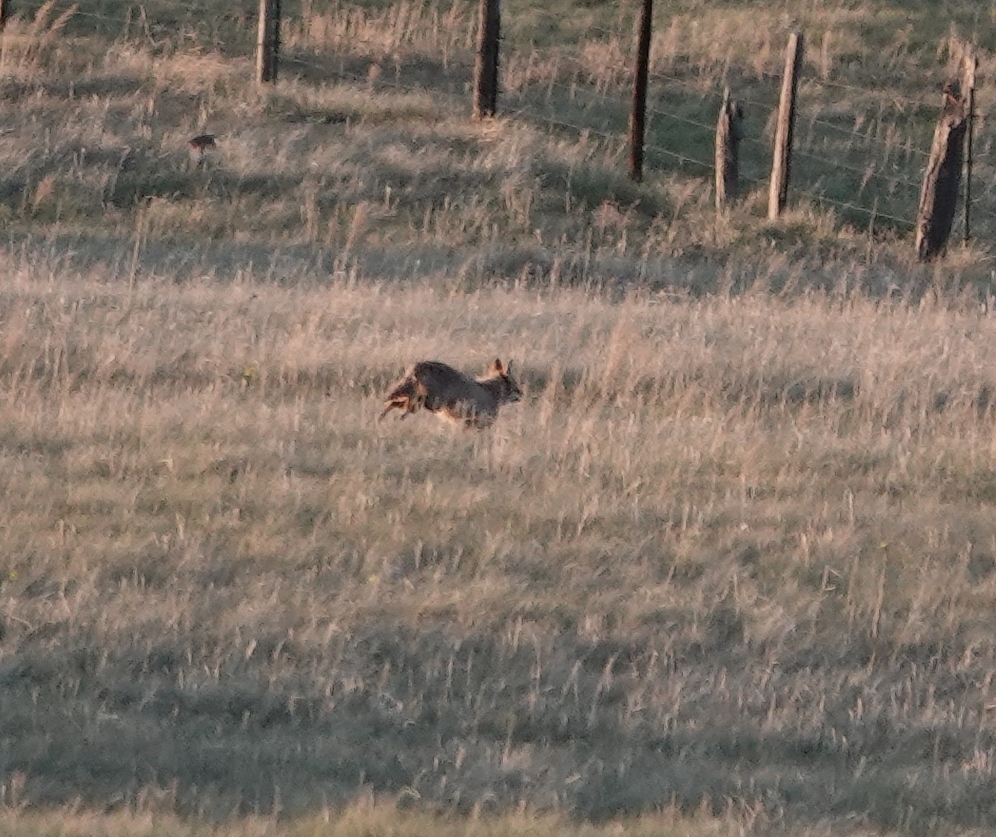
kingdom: Animalia
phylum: Chordata
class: Mammalia
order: Carnivora
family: Canidae
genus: Canis
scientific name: Canis latrans
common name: Coyote
